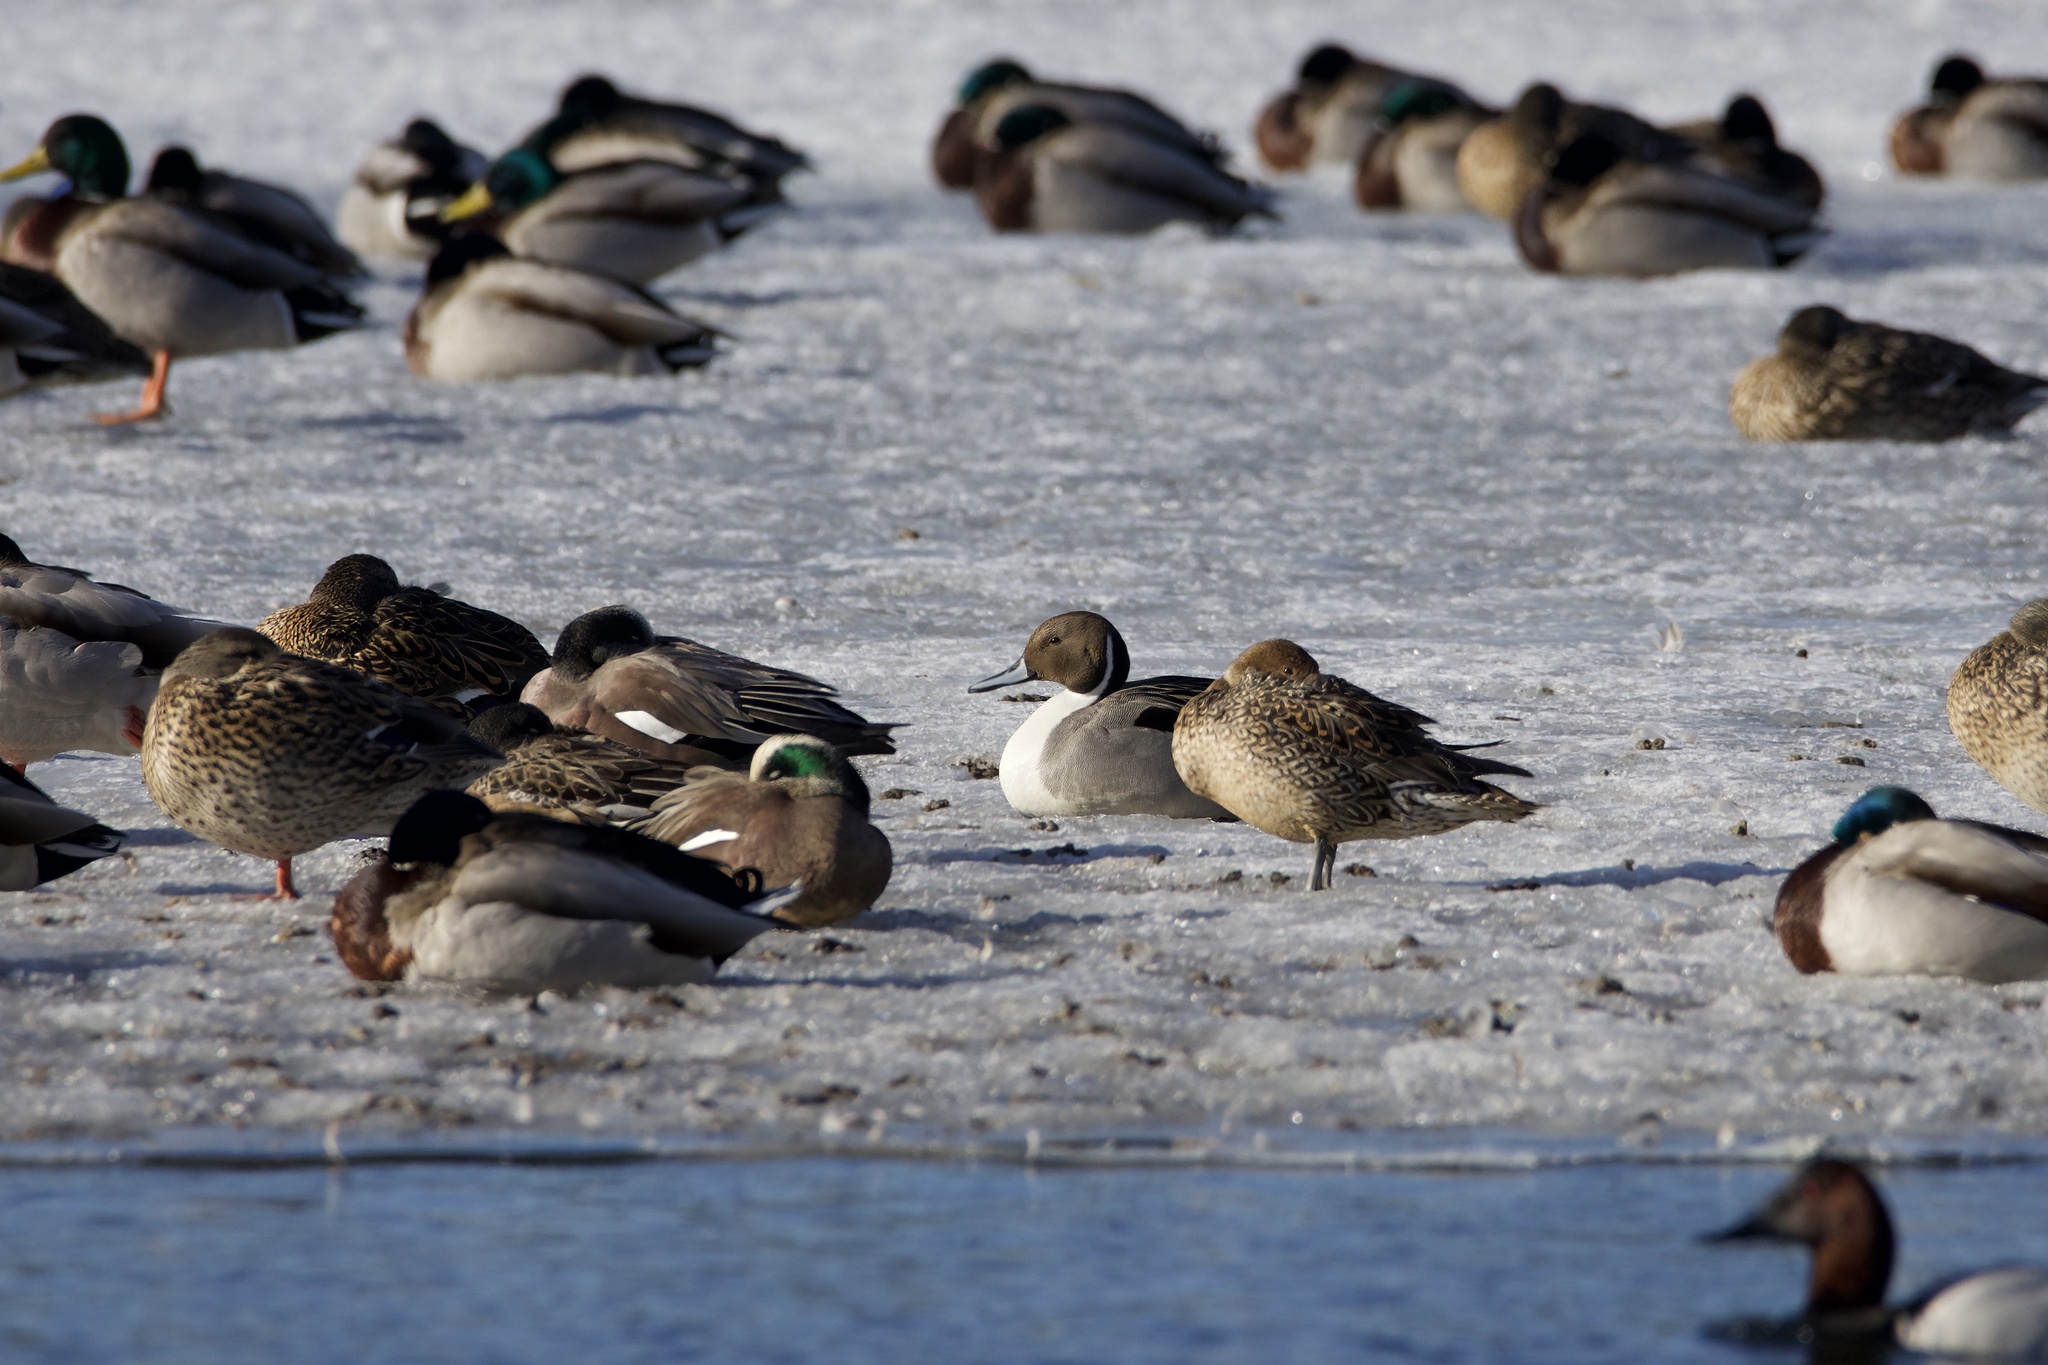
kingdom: Animalia
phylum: Chordata
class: Aves
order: Anseriformes
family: Anatidae
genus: Anas
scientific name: Anas acuta
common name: Northern pintail
